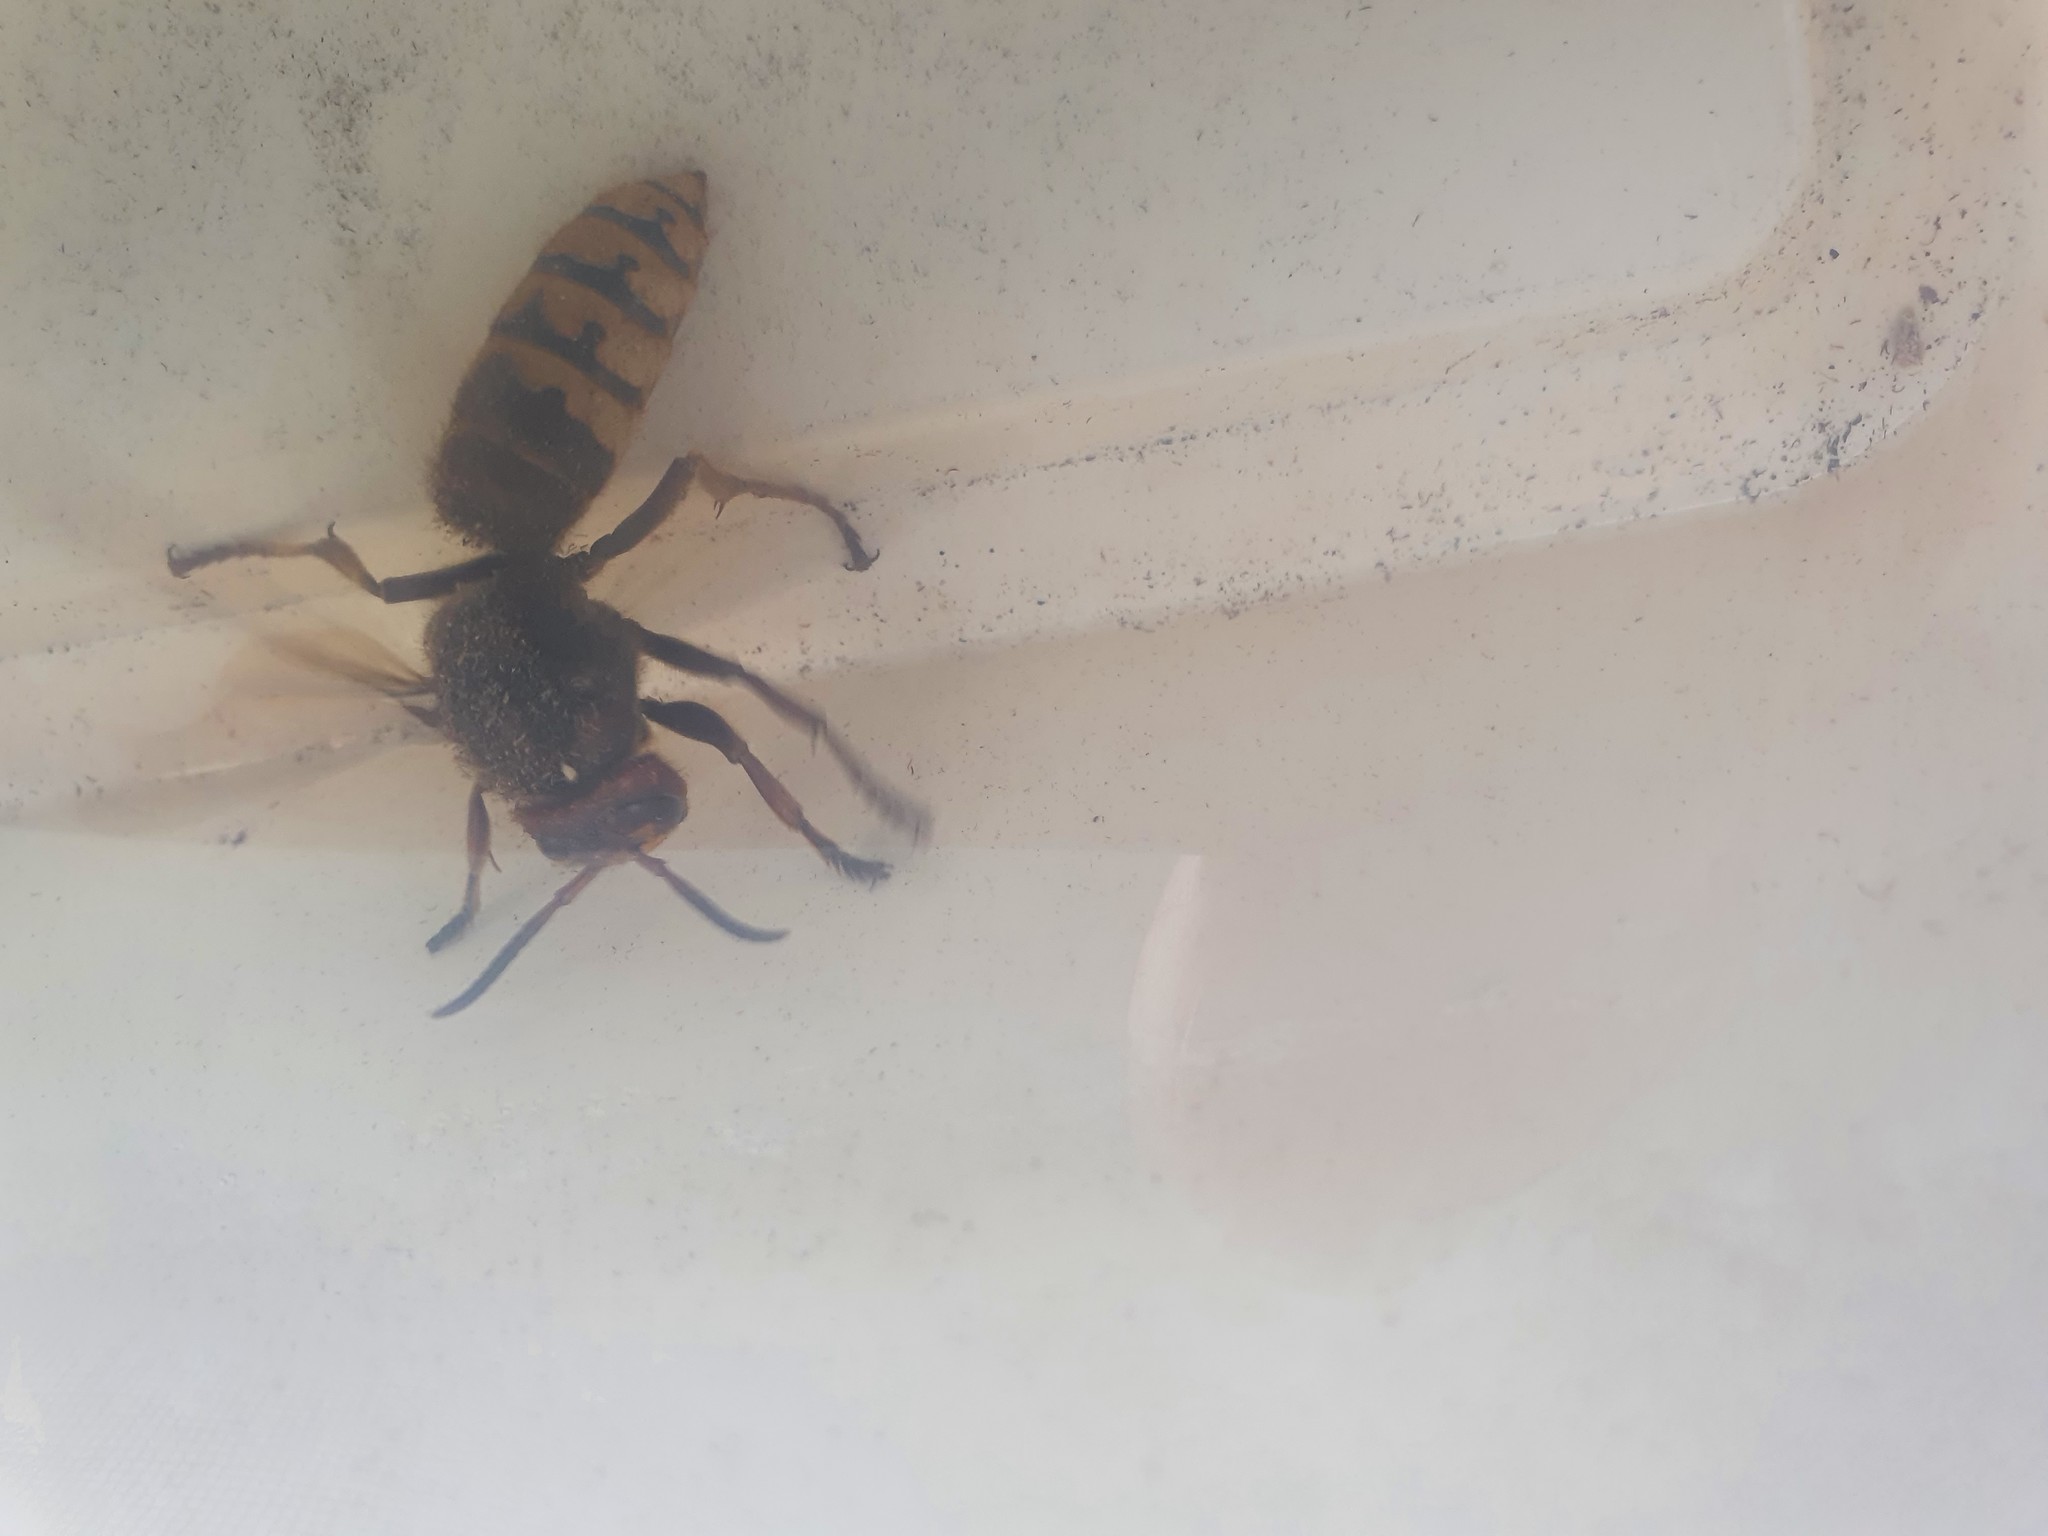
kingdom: Animalia
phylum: Arthropoda
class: Insecta
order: Hymenoptera
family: Vespidae
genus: Vespa
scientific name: Vespa crabro
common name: Hornet
